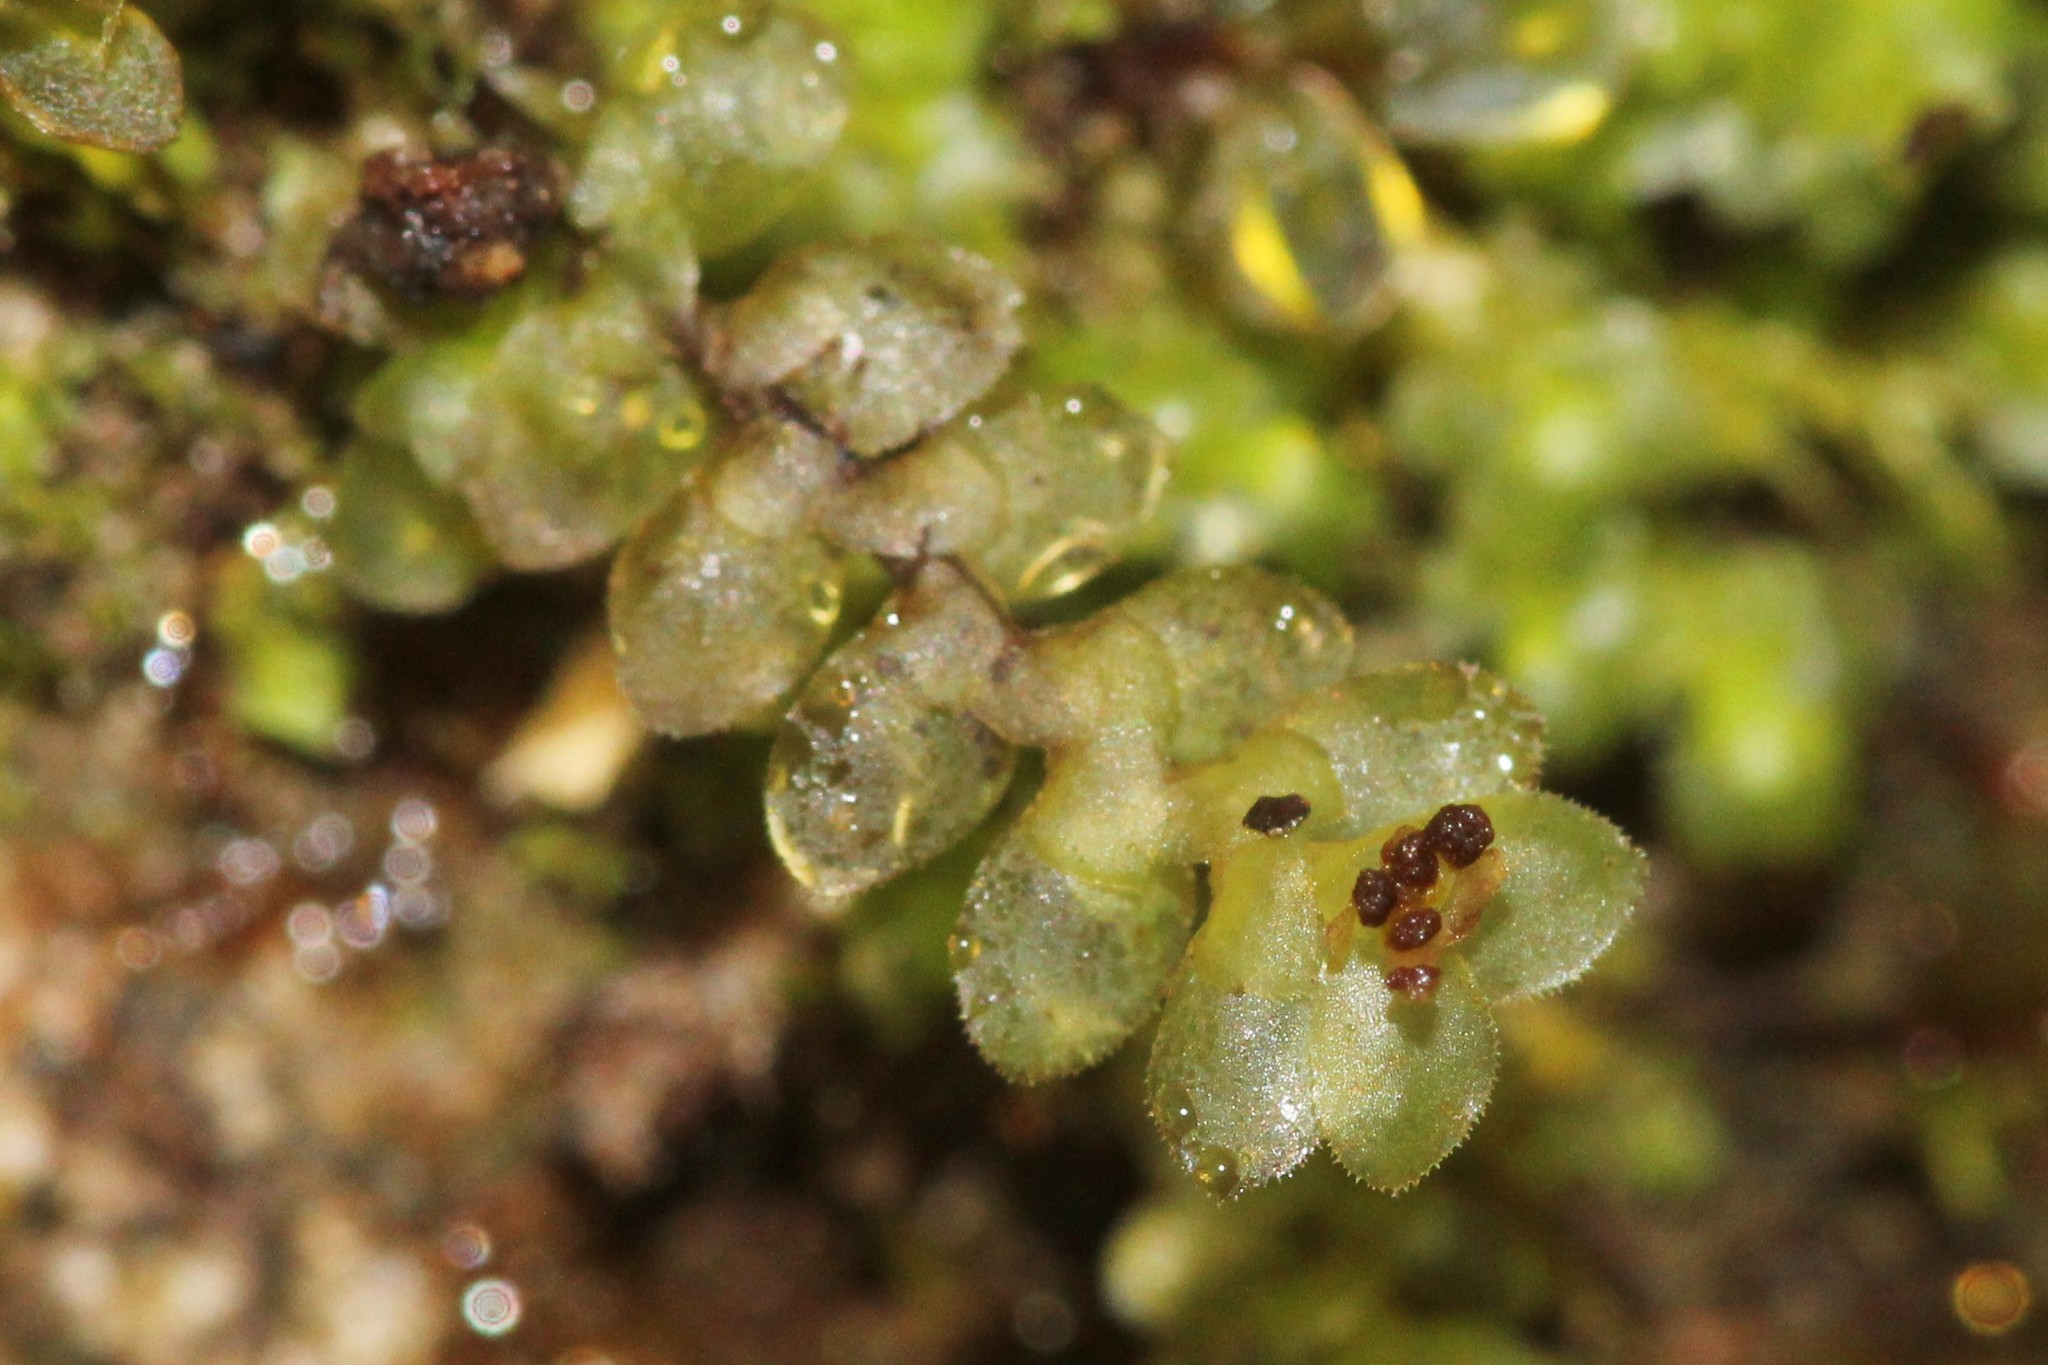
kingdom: Plantae
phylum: Marchantiophyta
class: Jungermanniopsida
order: Jungermanniales
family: Scapaniaceae
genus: Scapania
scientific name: Scapania nemorea
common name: Grove earwort
